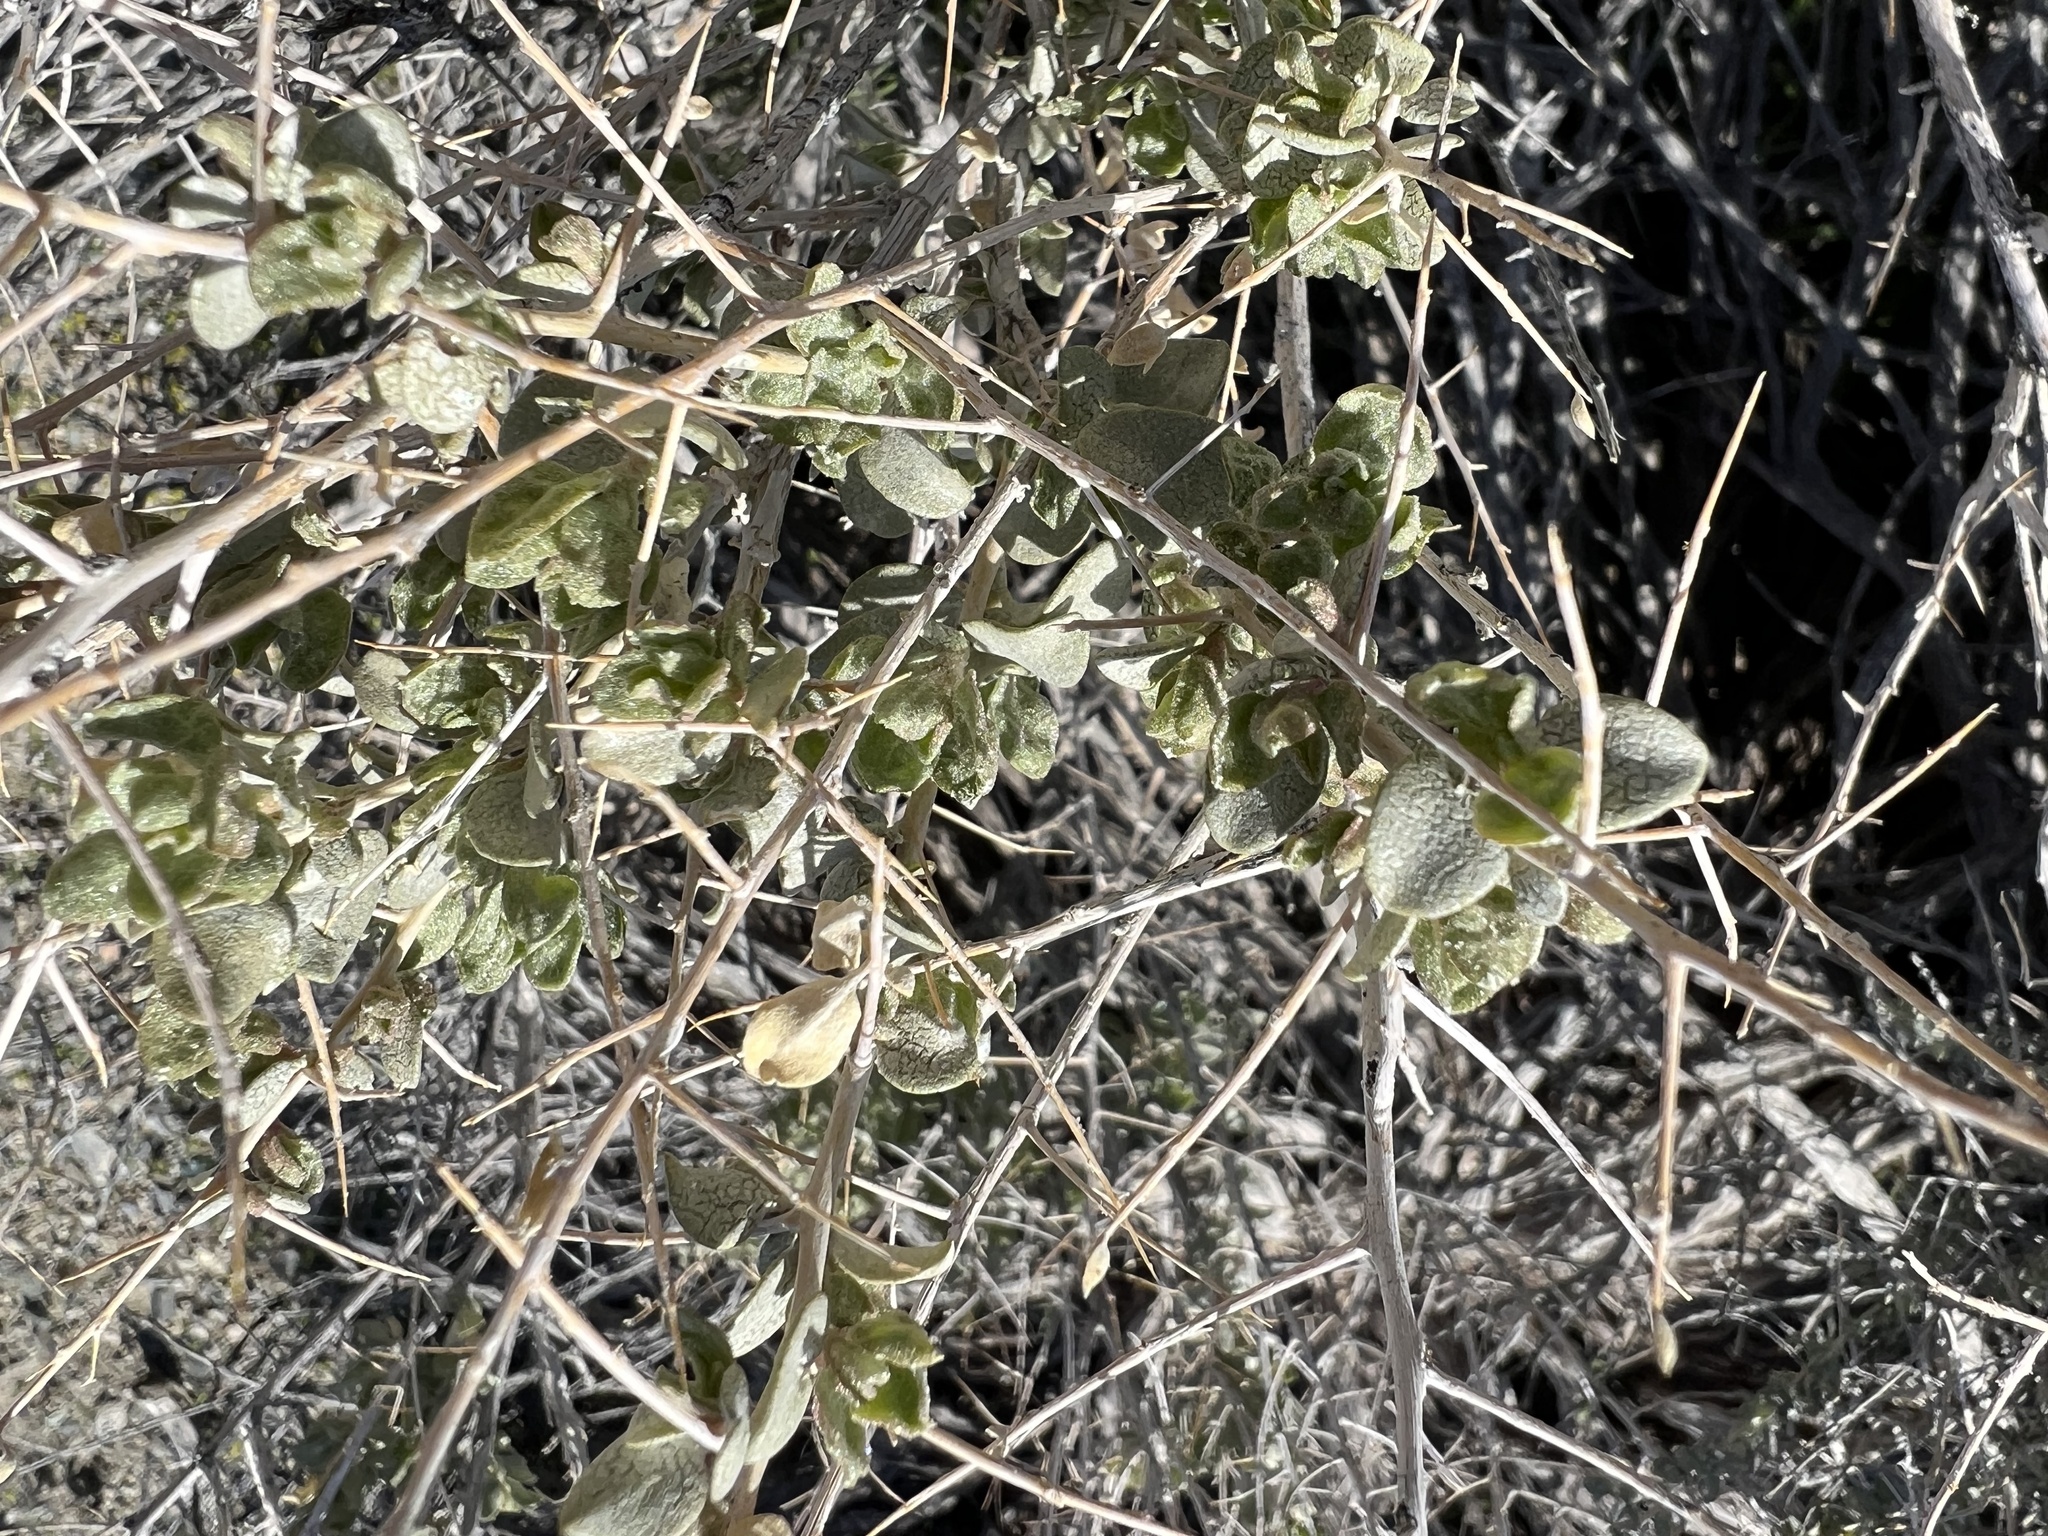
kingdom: Plantae
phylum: Tracheophyta
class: Magnoliopsida
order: Caryophyllales
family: Amaranthaceae
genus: Atriplex
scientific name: Atriplex confertifolia
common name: Shadscale
